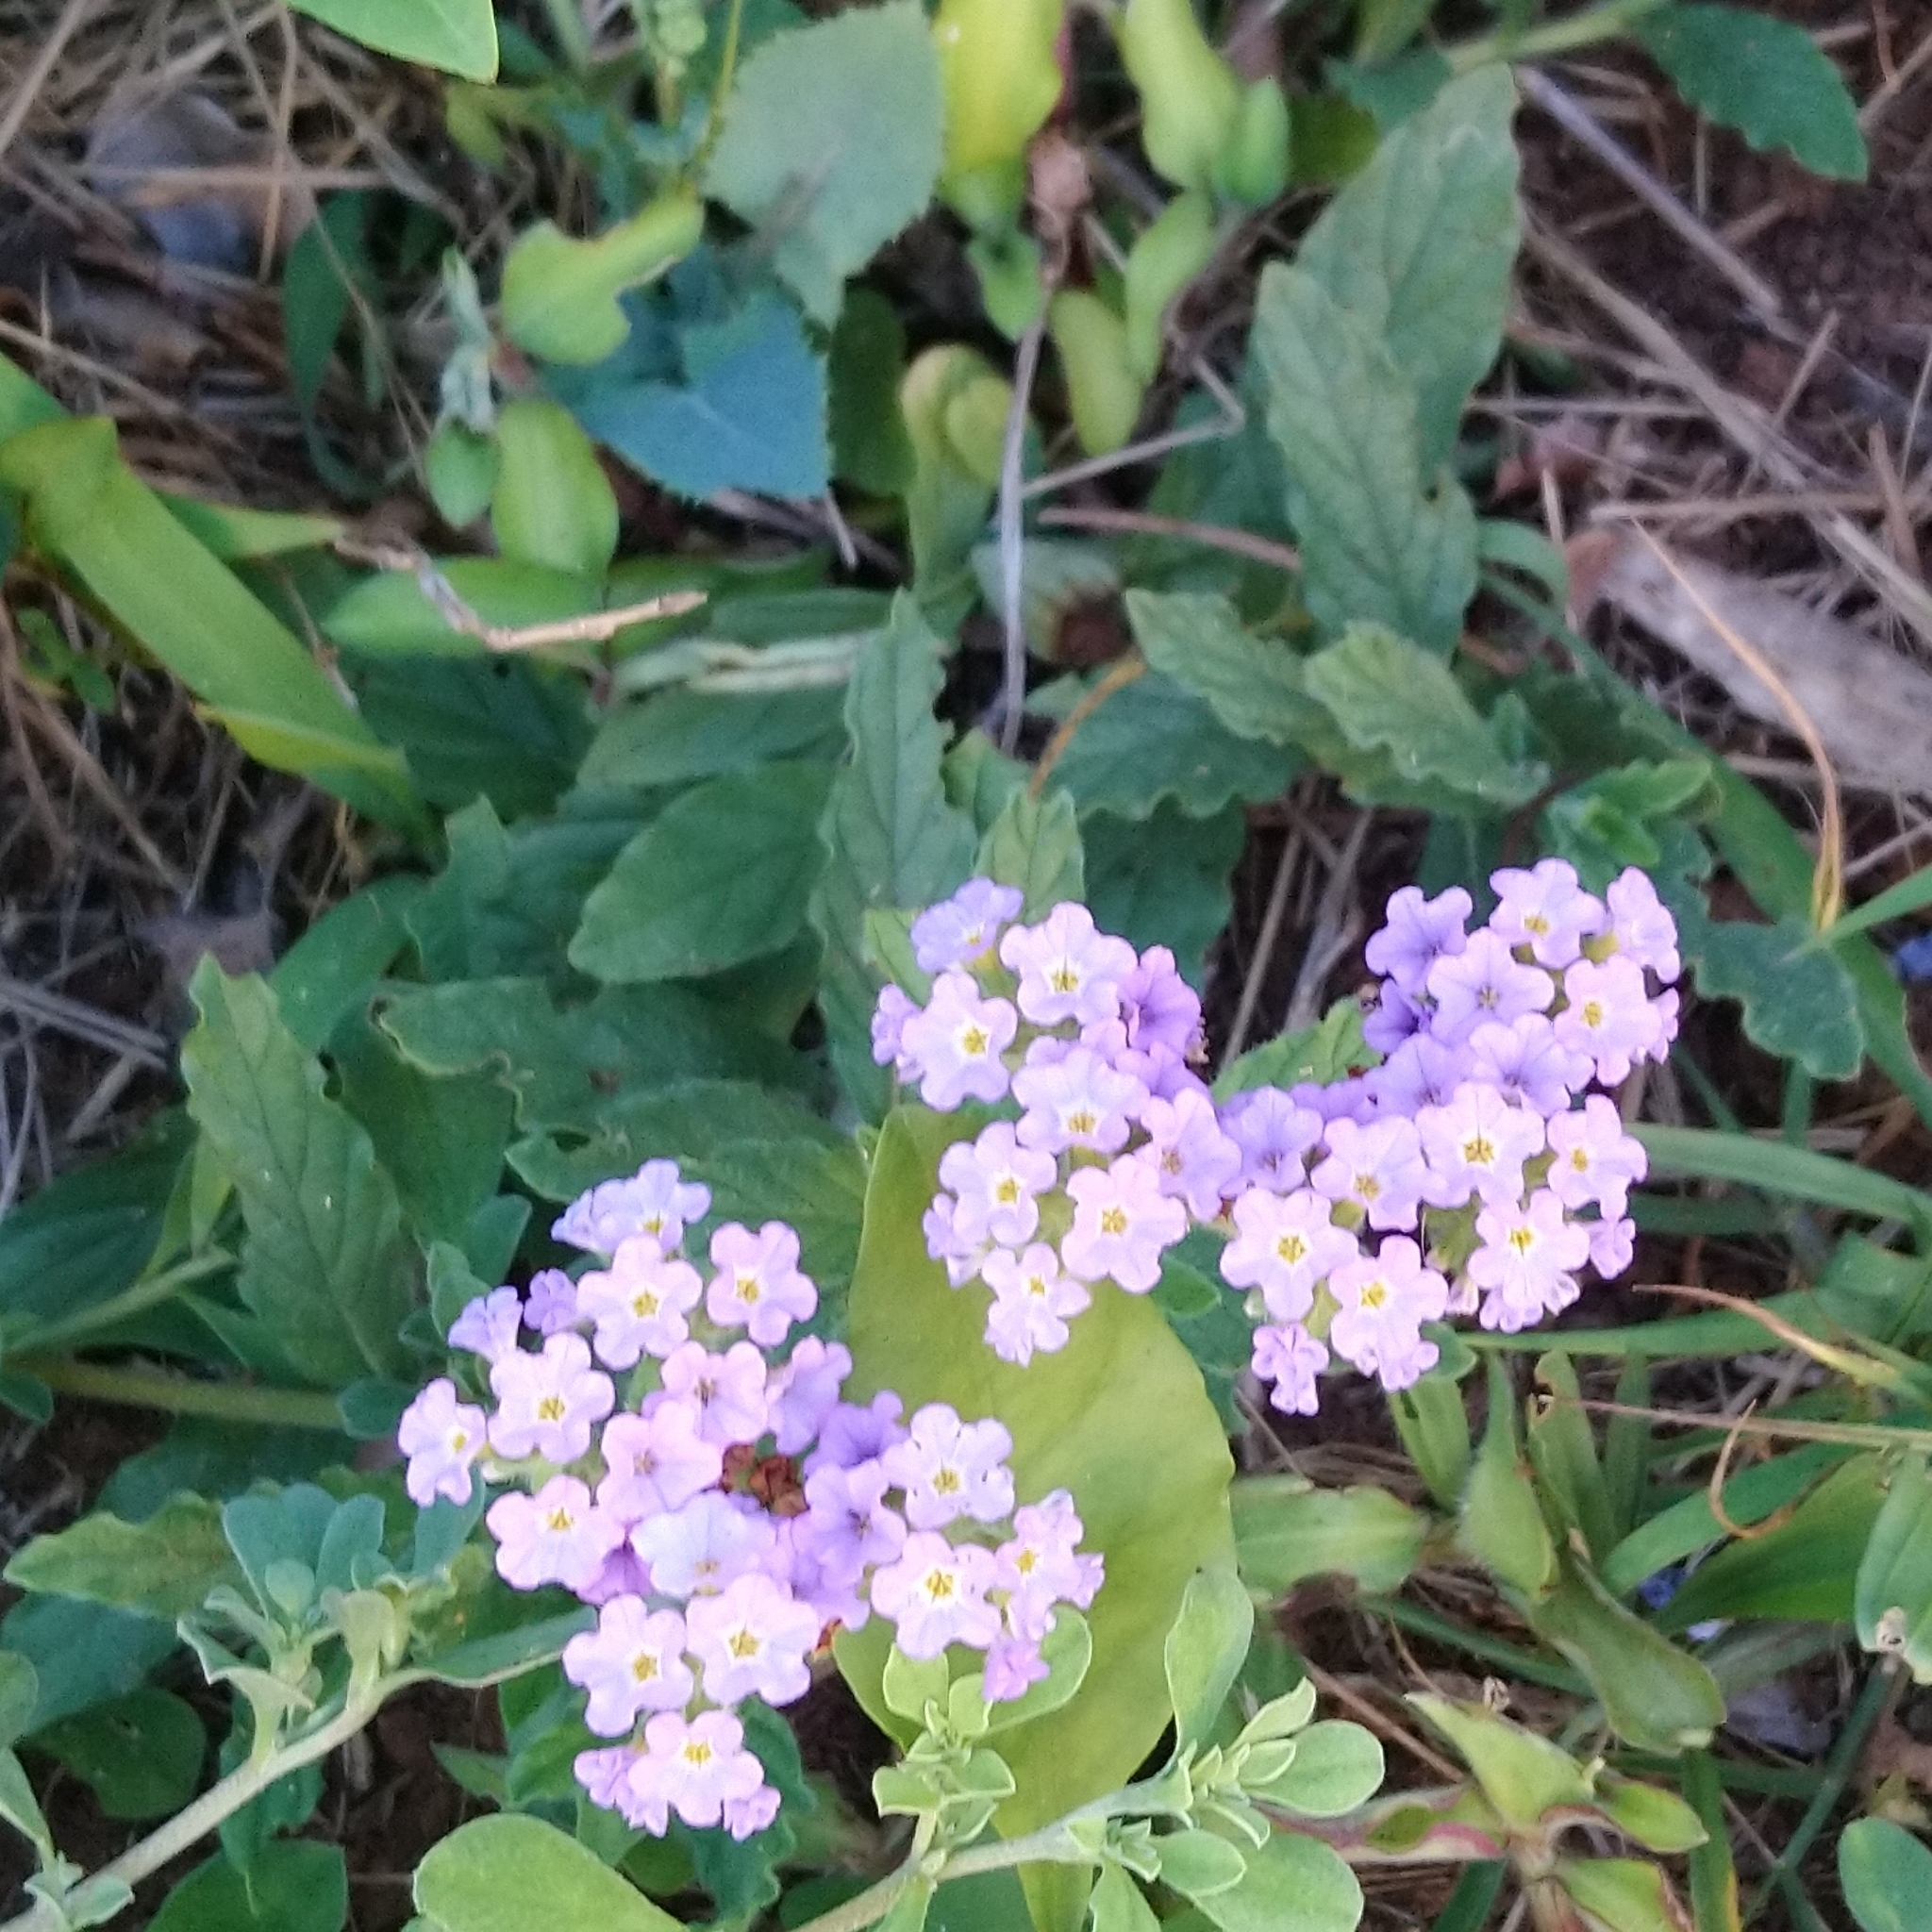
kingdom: Plantae
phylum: Tracheophyta
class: Magnoliopsida
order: Boraginales
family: Heliotropiaceae
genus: Heliotropium
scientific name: Heliotropium amplexicaule
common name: Clasping heliotrope
